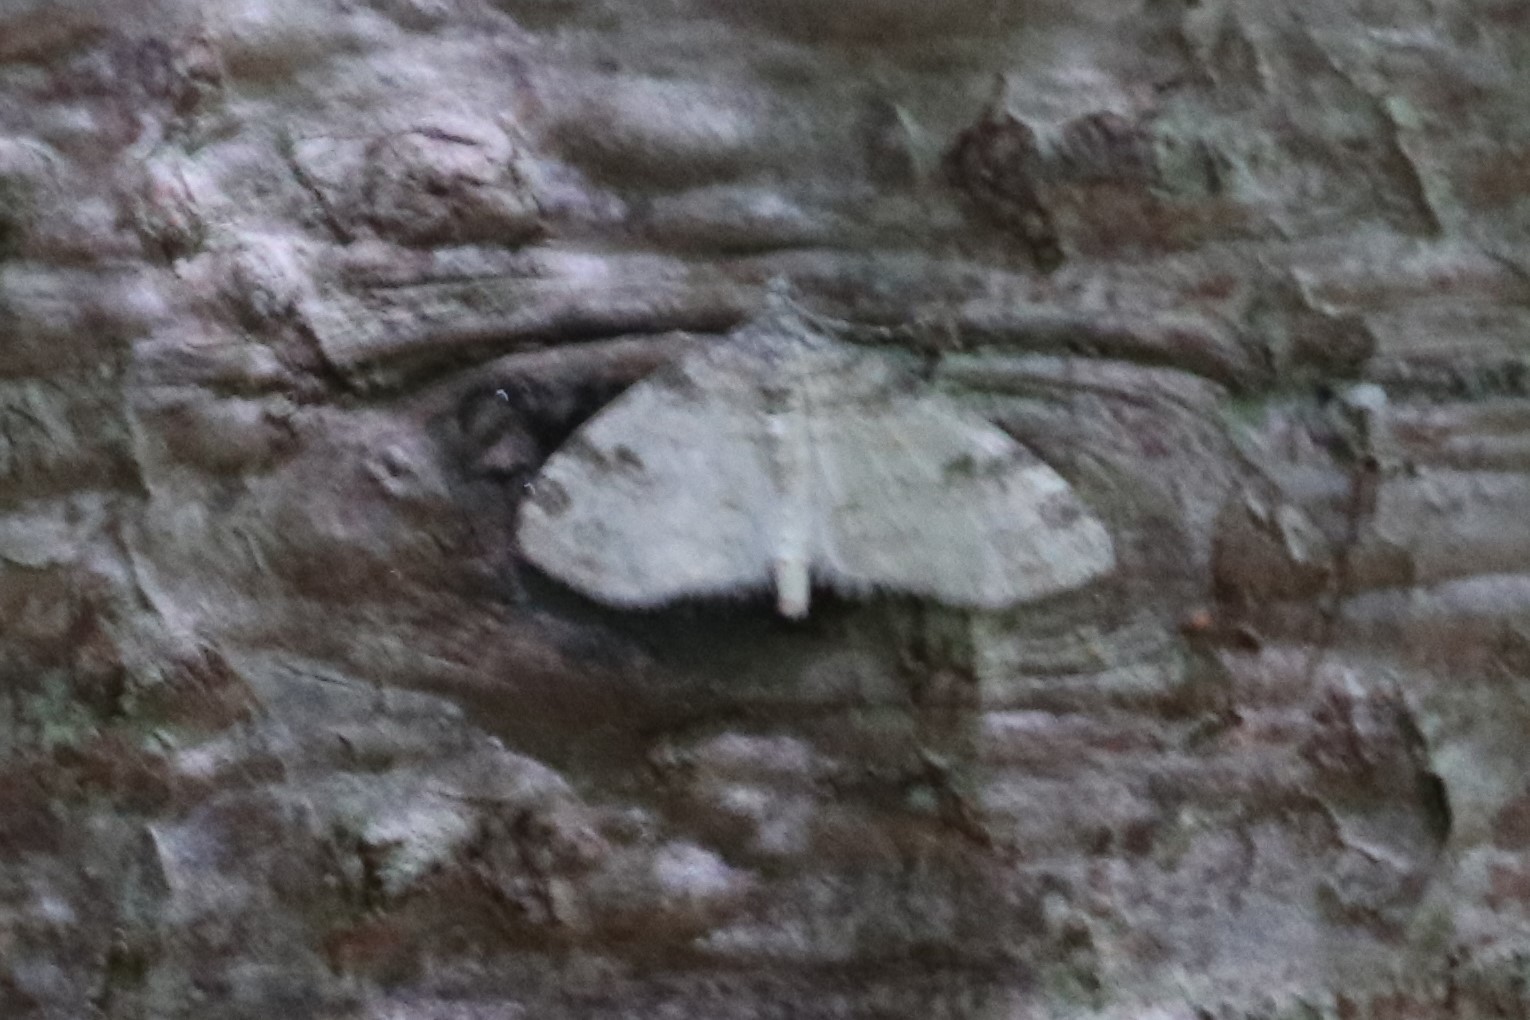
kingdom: Animalia
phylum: Arthropoda
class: Insecta
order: Lepidoptera
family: Geometridae
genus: Lobophora
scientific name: Lobophora nivigerata
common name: Powdered bigwing
